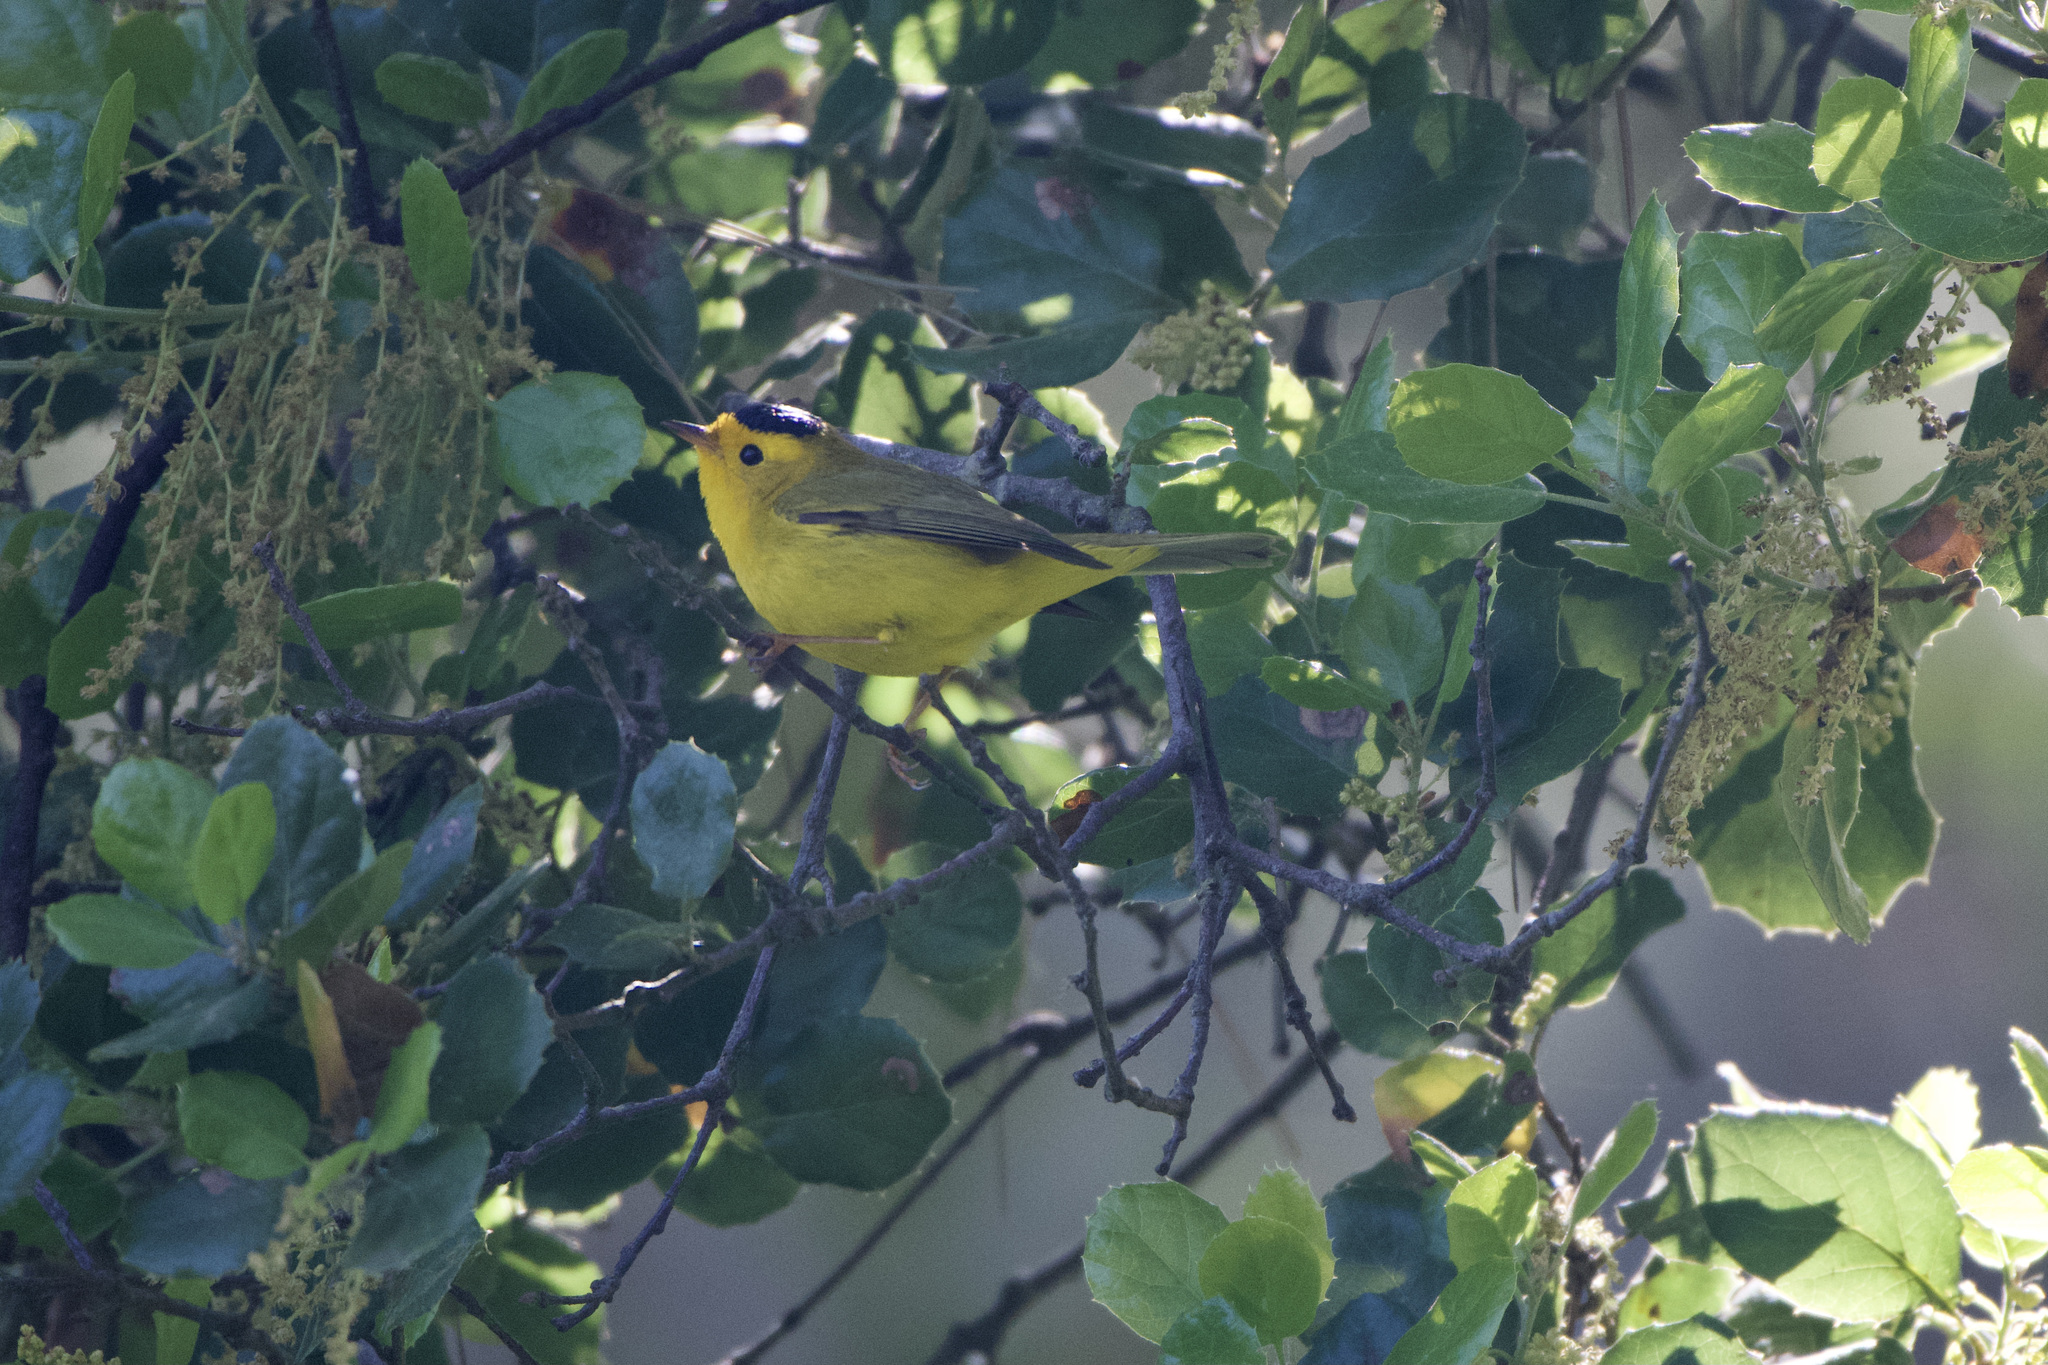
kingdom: Animalia
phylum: Chordata
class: Aves
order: Passeriformes
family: Parulidae
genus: Cardellina
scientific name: Cardellina pusilla
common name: Wilson's warbler
